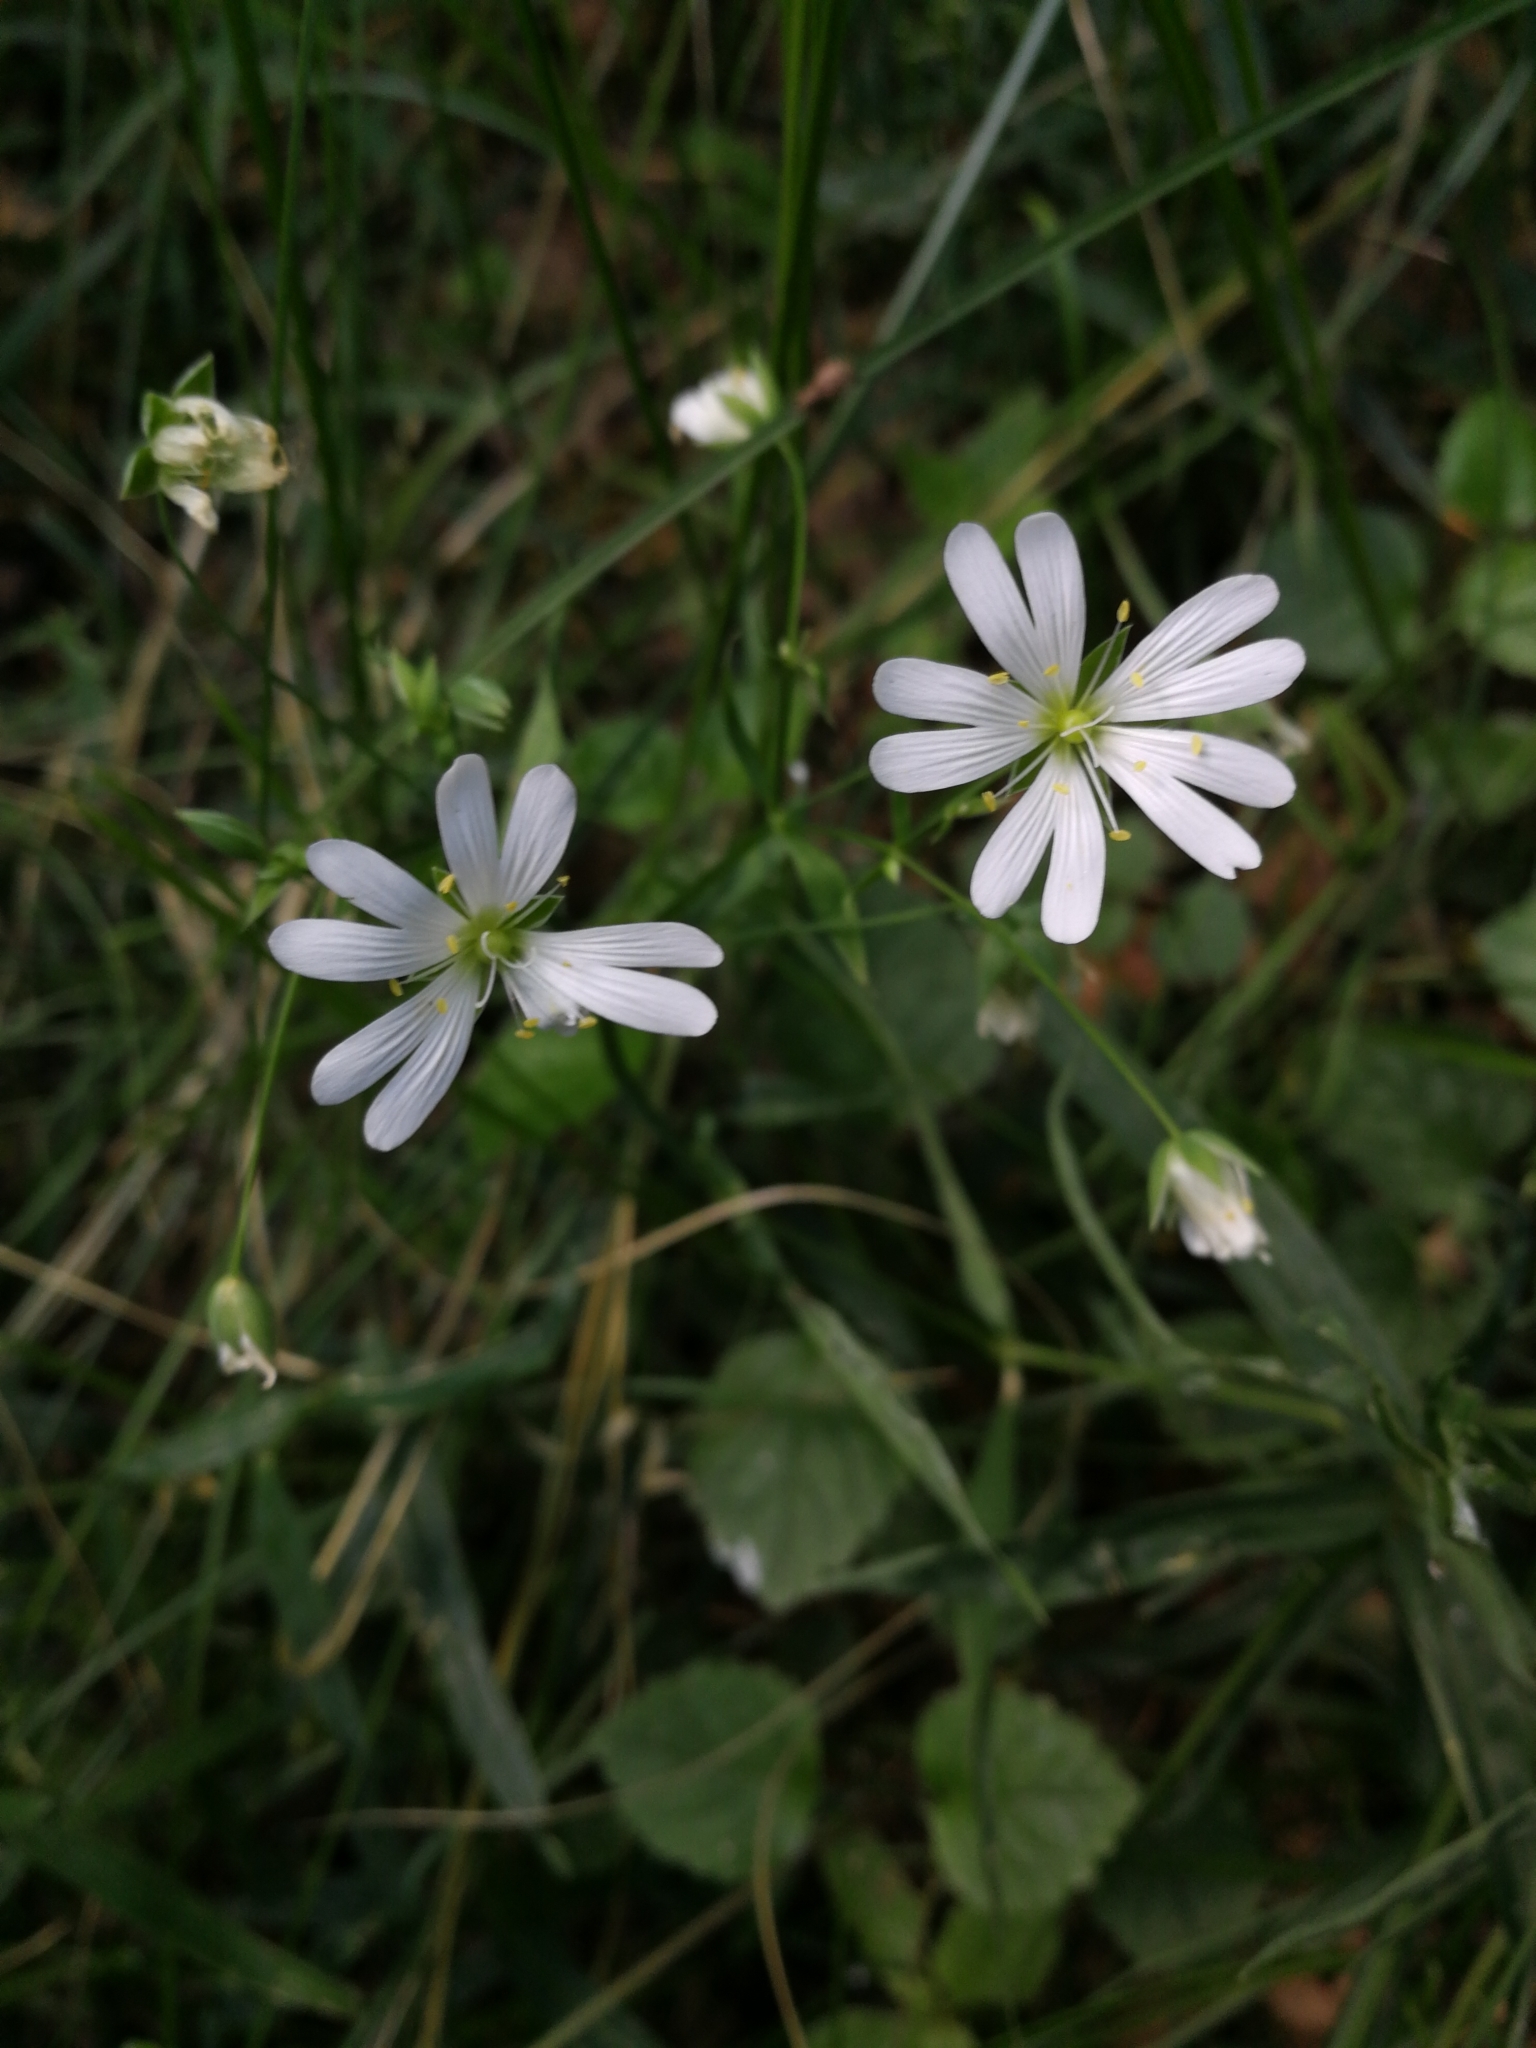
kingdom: Plantae
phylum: Tracheophyta
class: Magnoliopsida
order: Caryophyllales
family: Caryophyllaceae
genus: Rabelera
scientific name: Rabelera holostea
